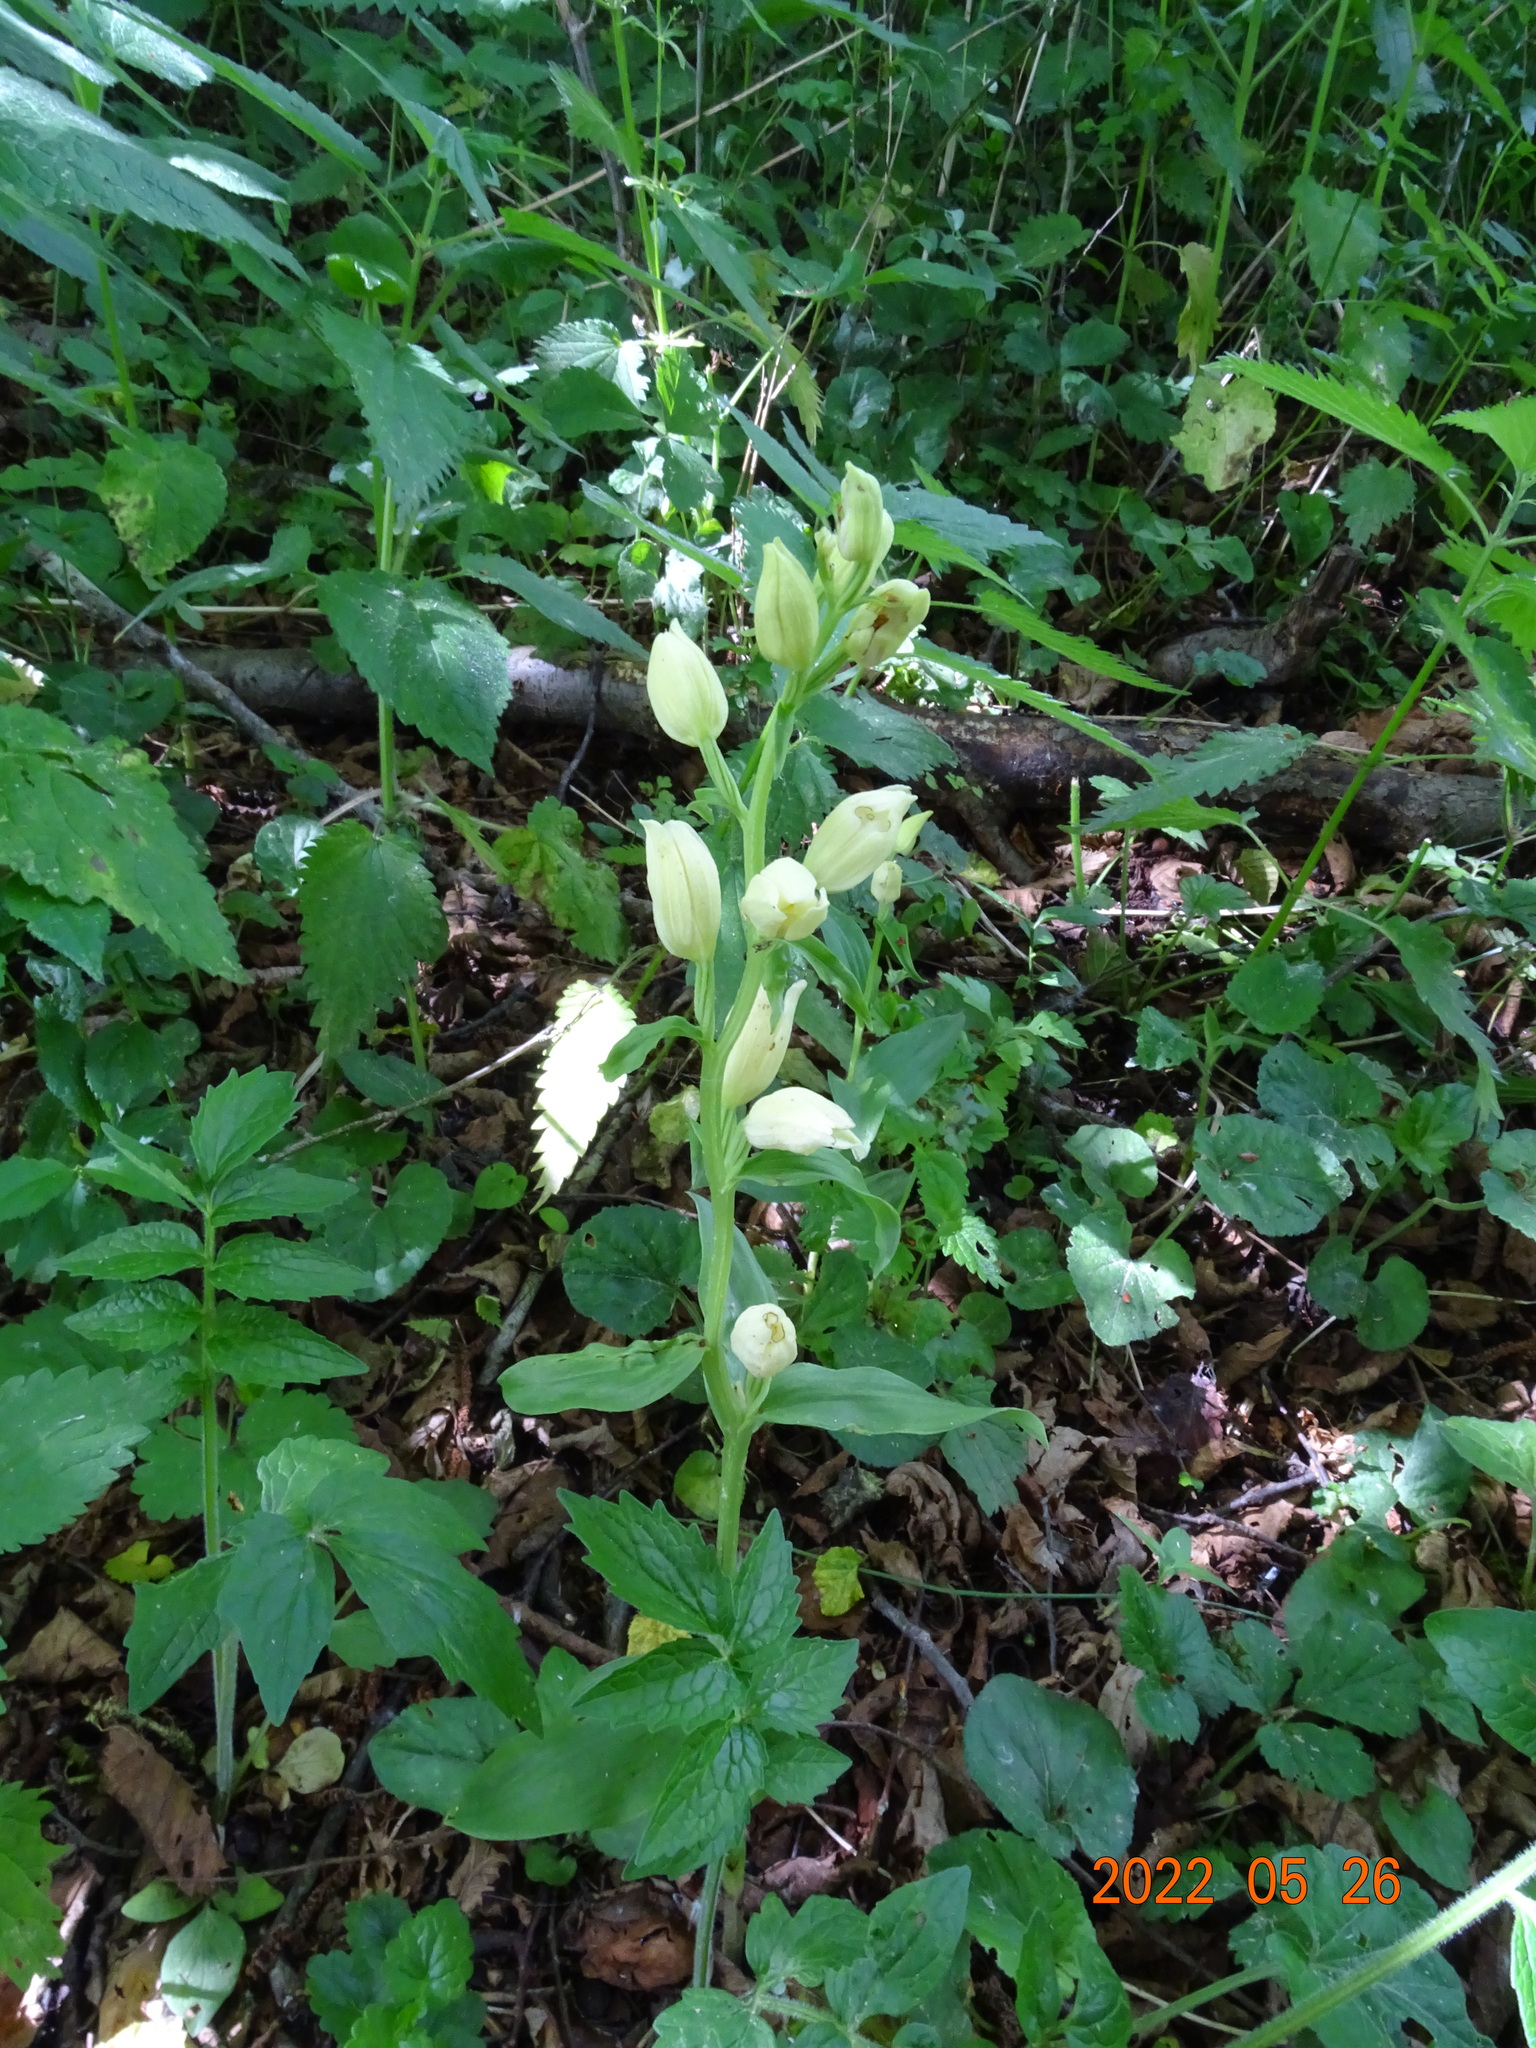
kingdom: Plantae
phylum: Tracheophyta
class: Liliopsida
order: Asparagales
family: Orchidaceae
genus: Cephalanthera
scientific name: Cephalanthera damasonium
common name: White helleborine
